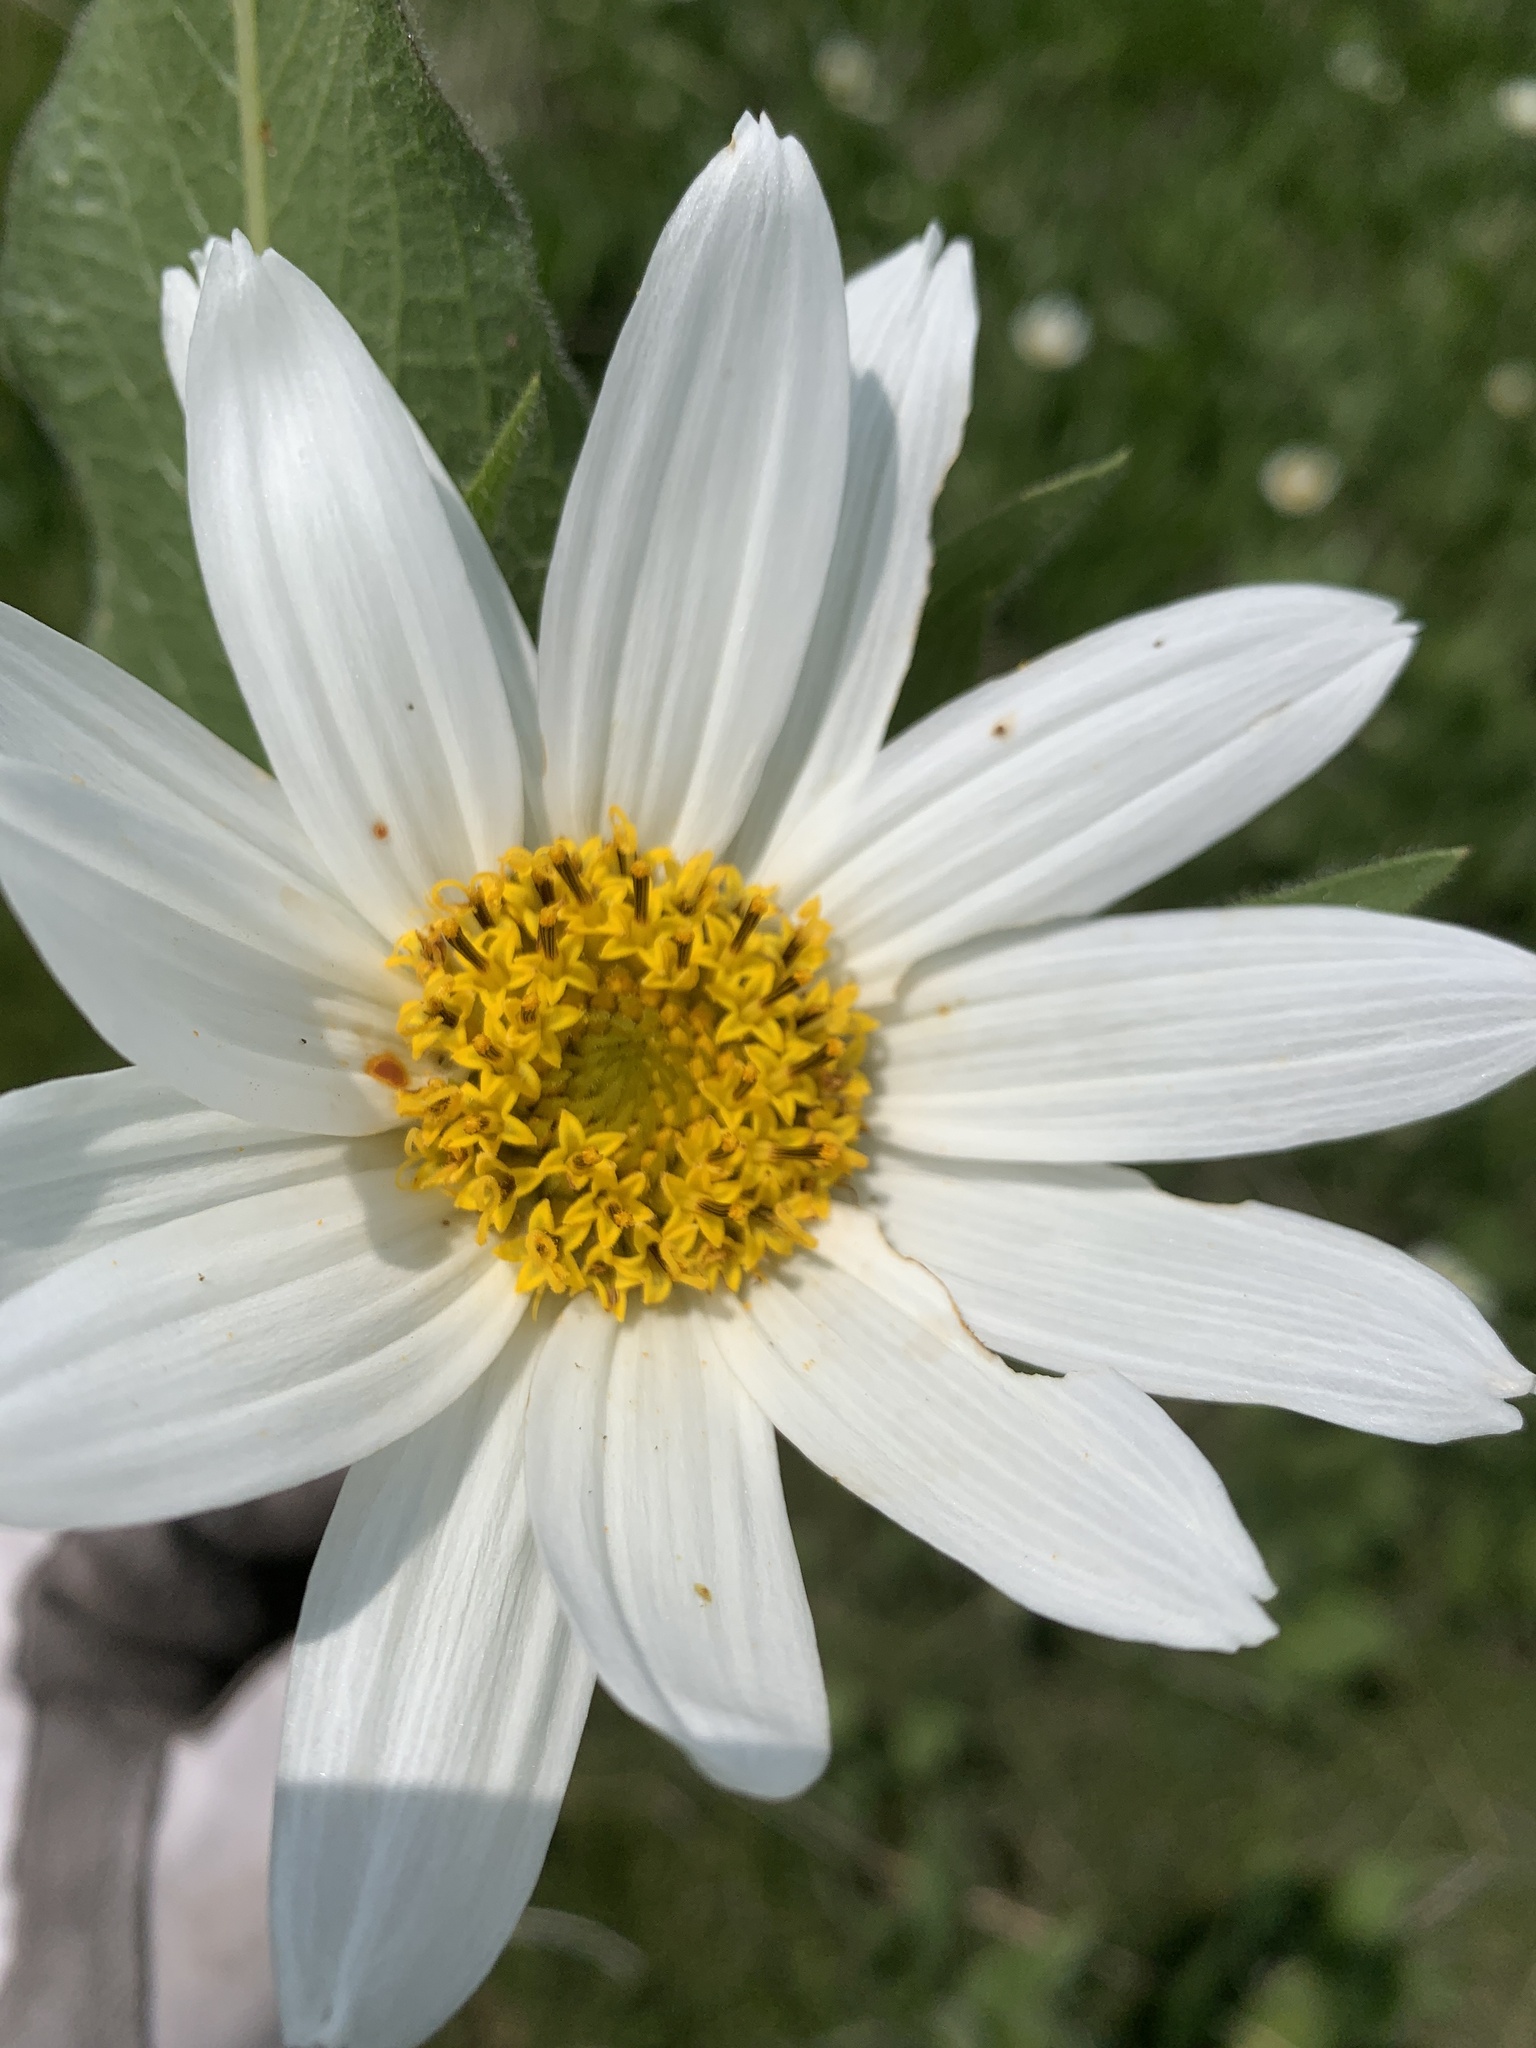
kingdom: Plantae
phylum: Tracheophyta
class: Magnoliopsida
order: Asterales
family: Asteraceae
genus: Wyethia
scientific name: Wyethia helianthoides
